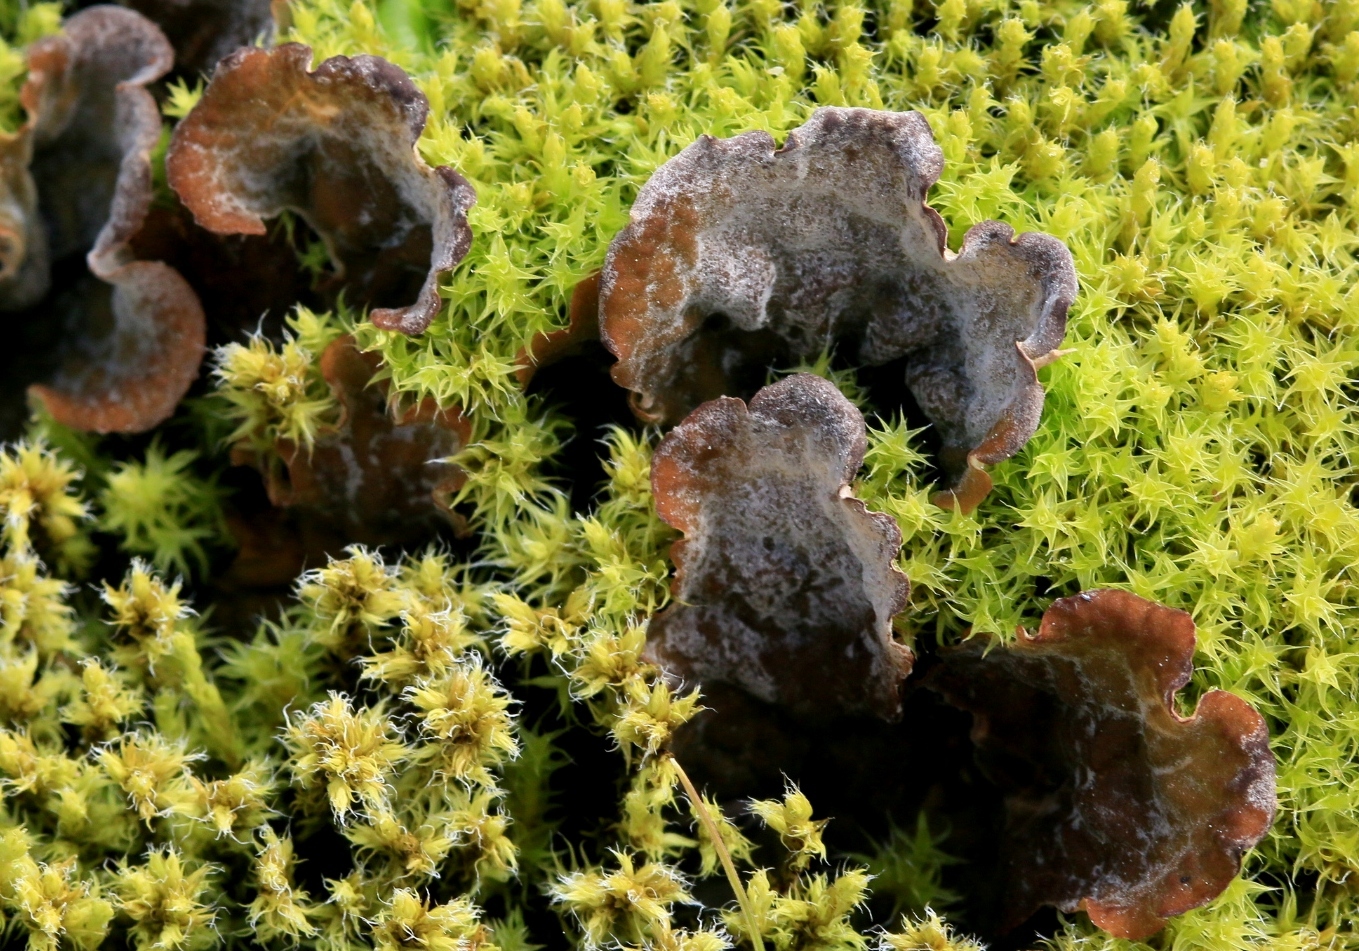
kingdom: Fungi
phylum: Ascomycota
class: Lecanoromycetes
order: Peltigerales
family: Peltigeraceae
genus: Peltigera
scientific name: Peltigera
